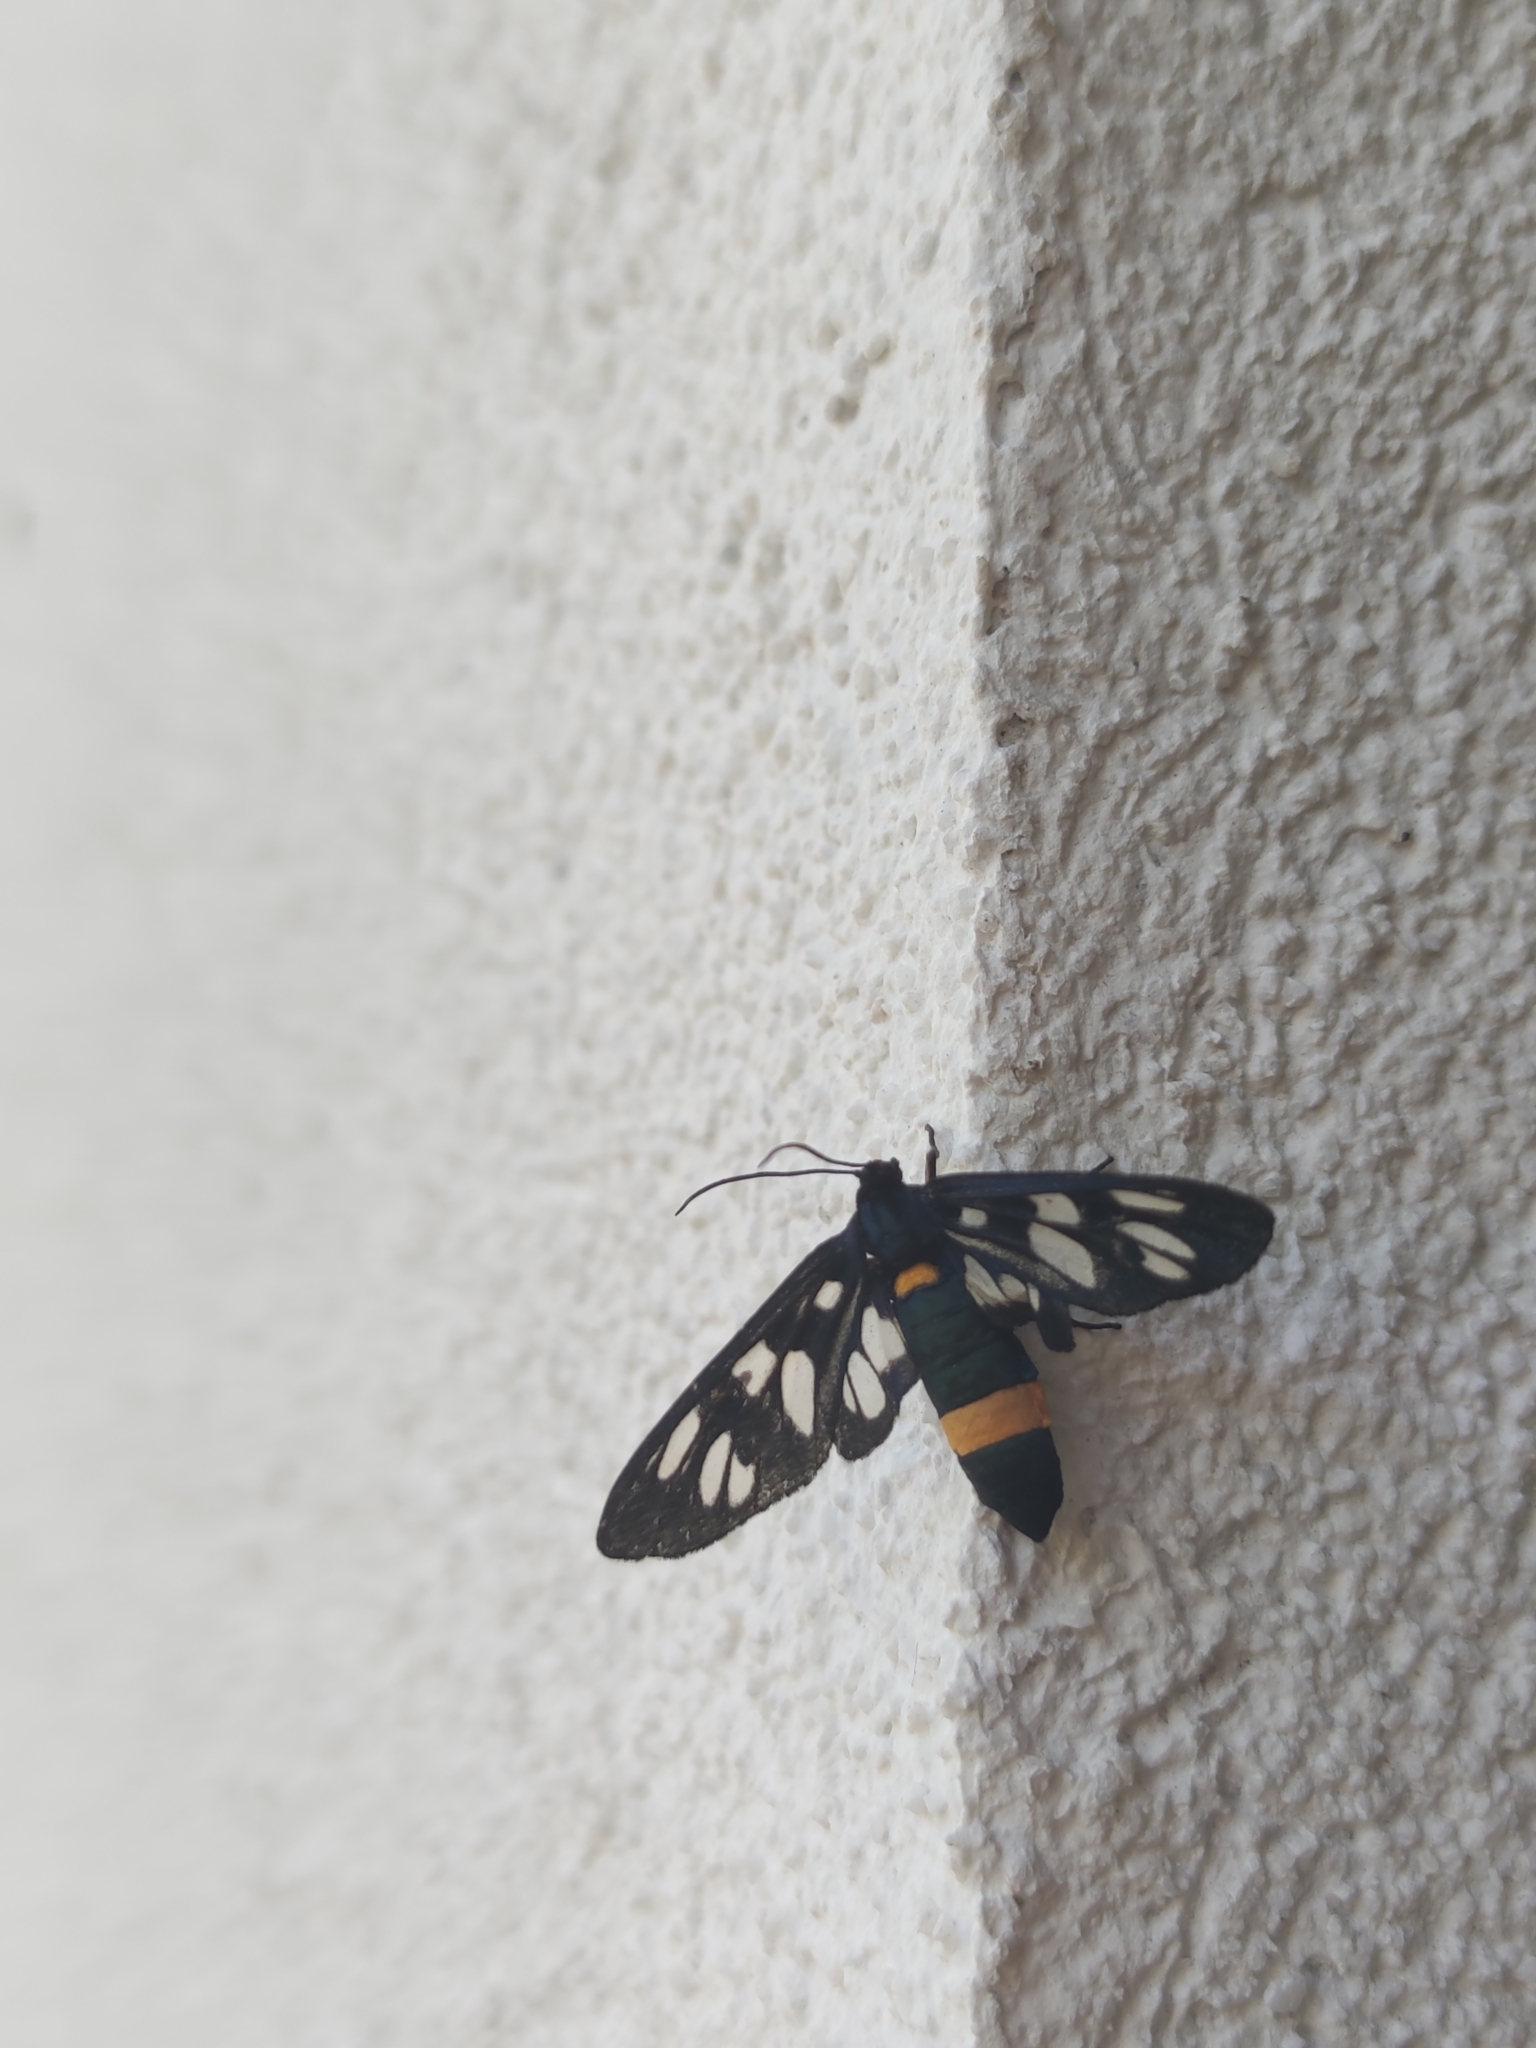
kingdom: Animalia
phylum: Arthropoda
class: Insecta
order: Lepidoptera
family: Erebidae
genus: Amata
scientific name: Amata phegea
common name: Nine-spotted
